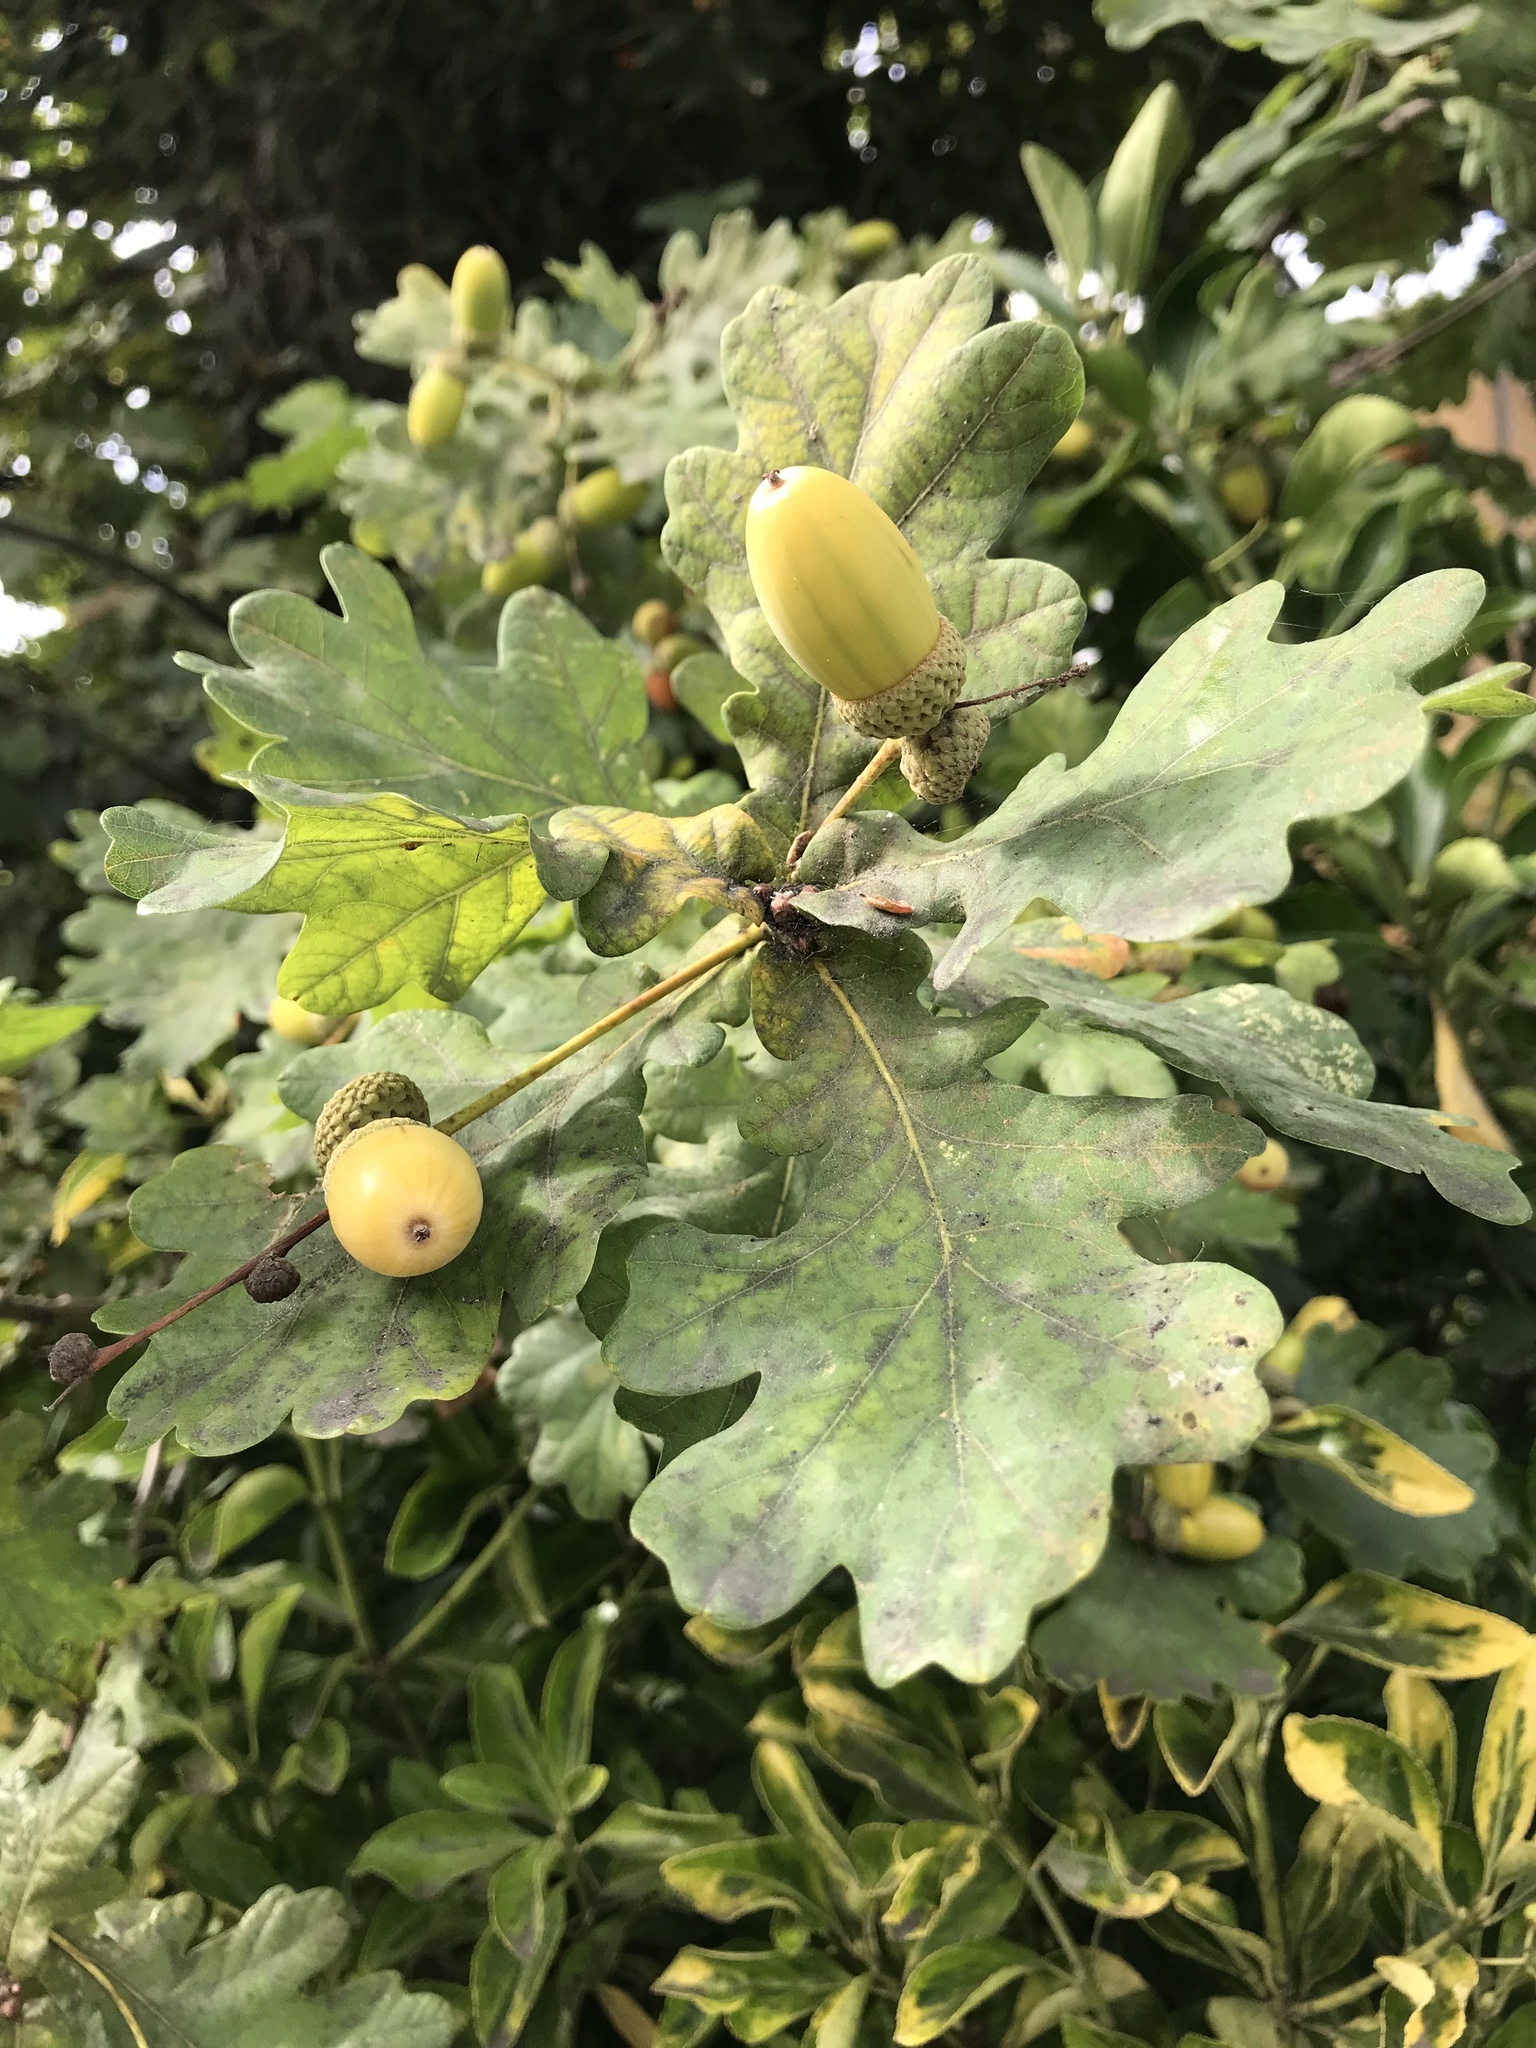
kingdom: Plantae
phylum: Tracheophyta
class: Magnoliopsida
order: Fagales
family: Fagaceae
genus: Quercus
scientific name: Quercus robur
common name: Pedunculate oak
